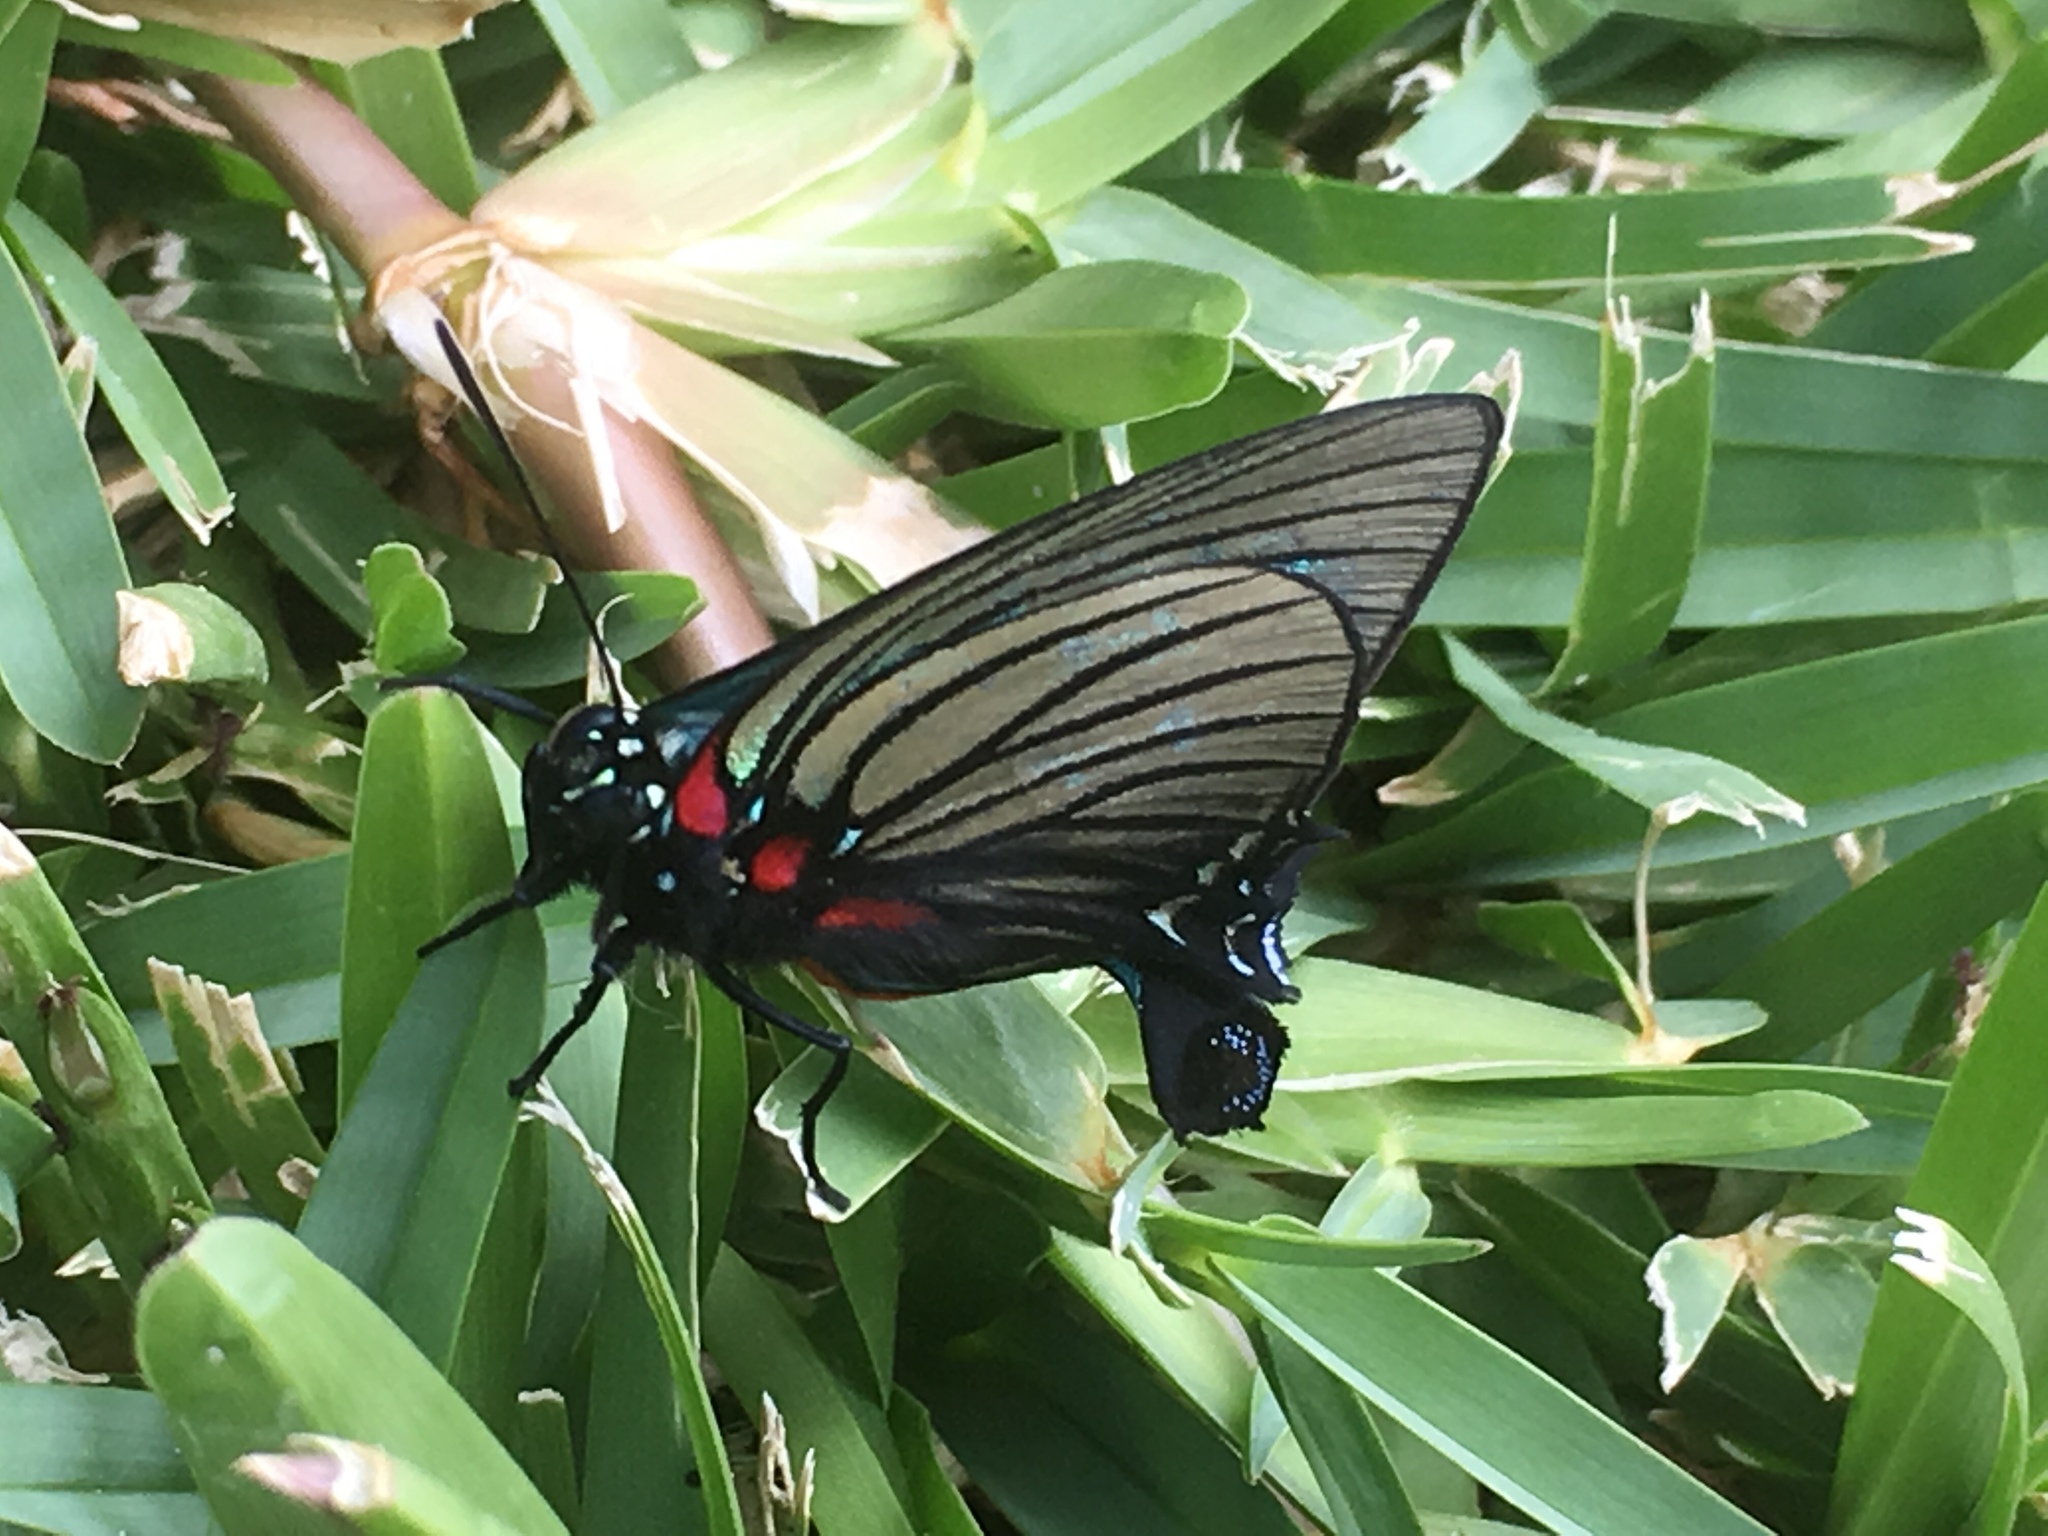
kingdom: Animalia
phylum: Arthropoda
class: Insecta
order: Lepidoptera
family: Lycaenidae
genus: Thecla
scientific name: Thecla polybe
